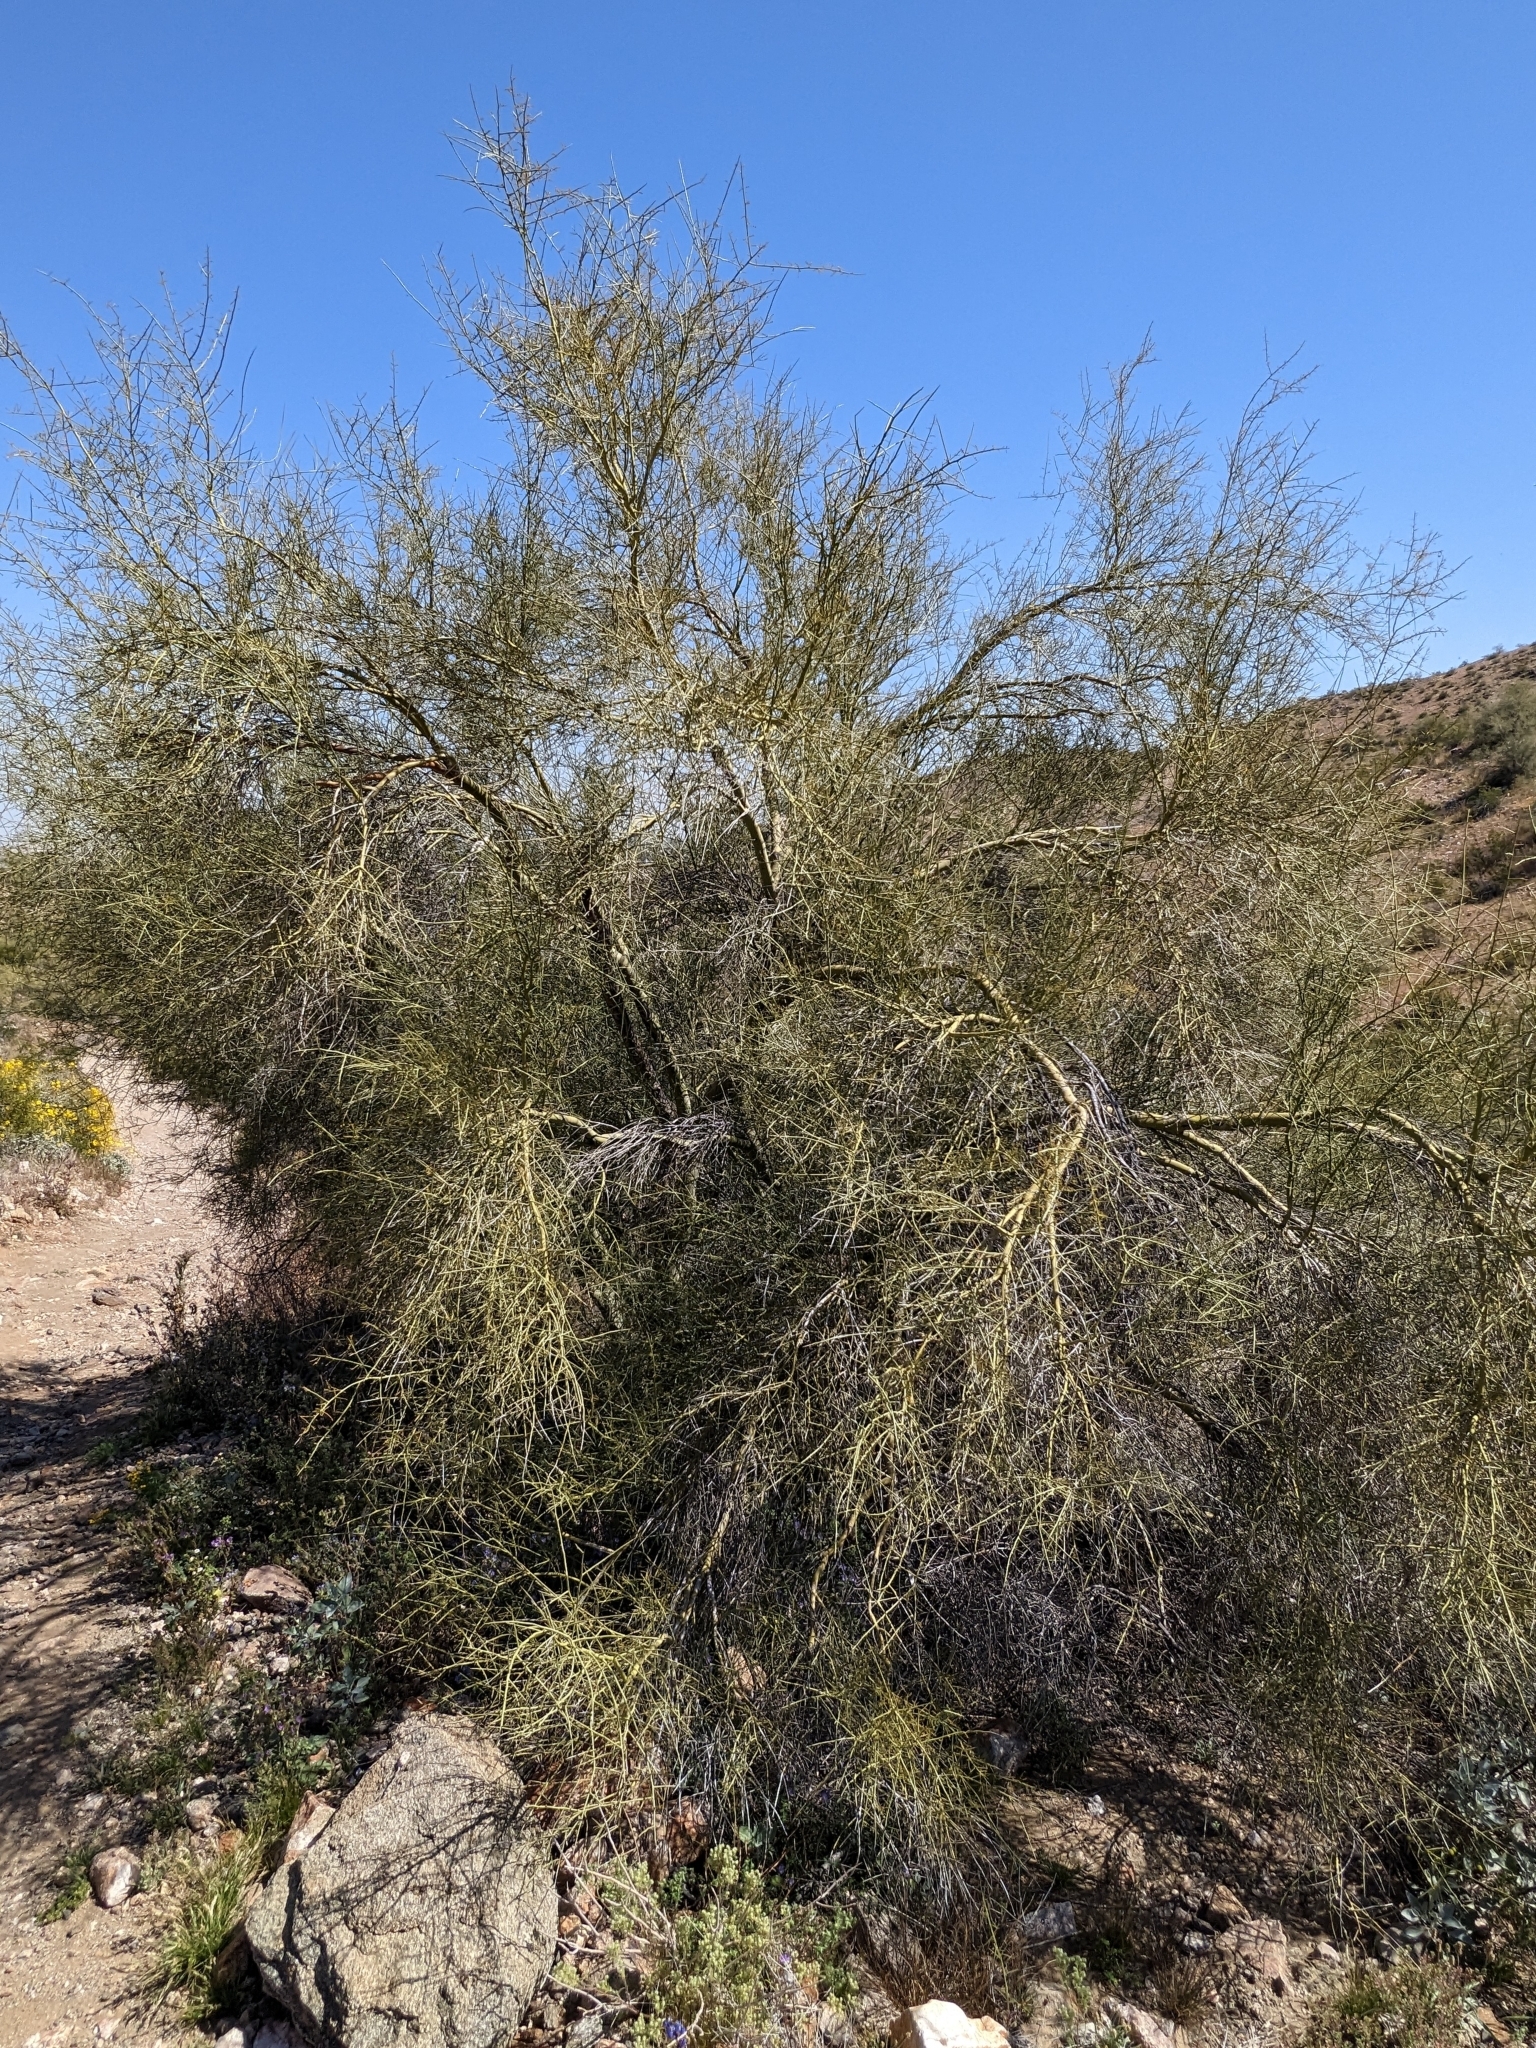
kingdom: Plantae
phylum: Tracheophyta
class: Magnoliopsida
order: Fabales
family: Fabaceae
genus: Parkinsonia
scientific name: Parkinsonia microphylla
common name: Yellow paloverde
